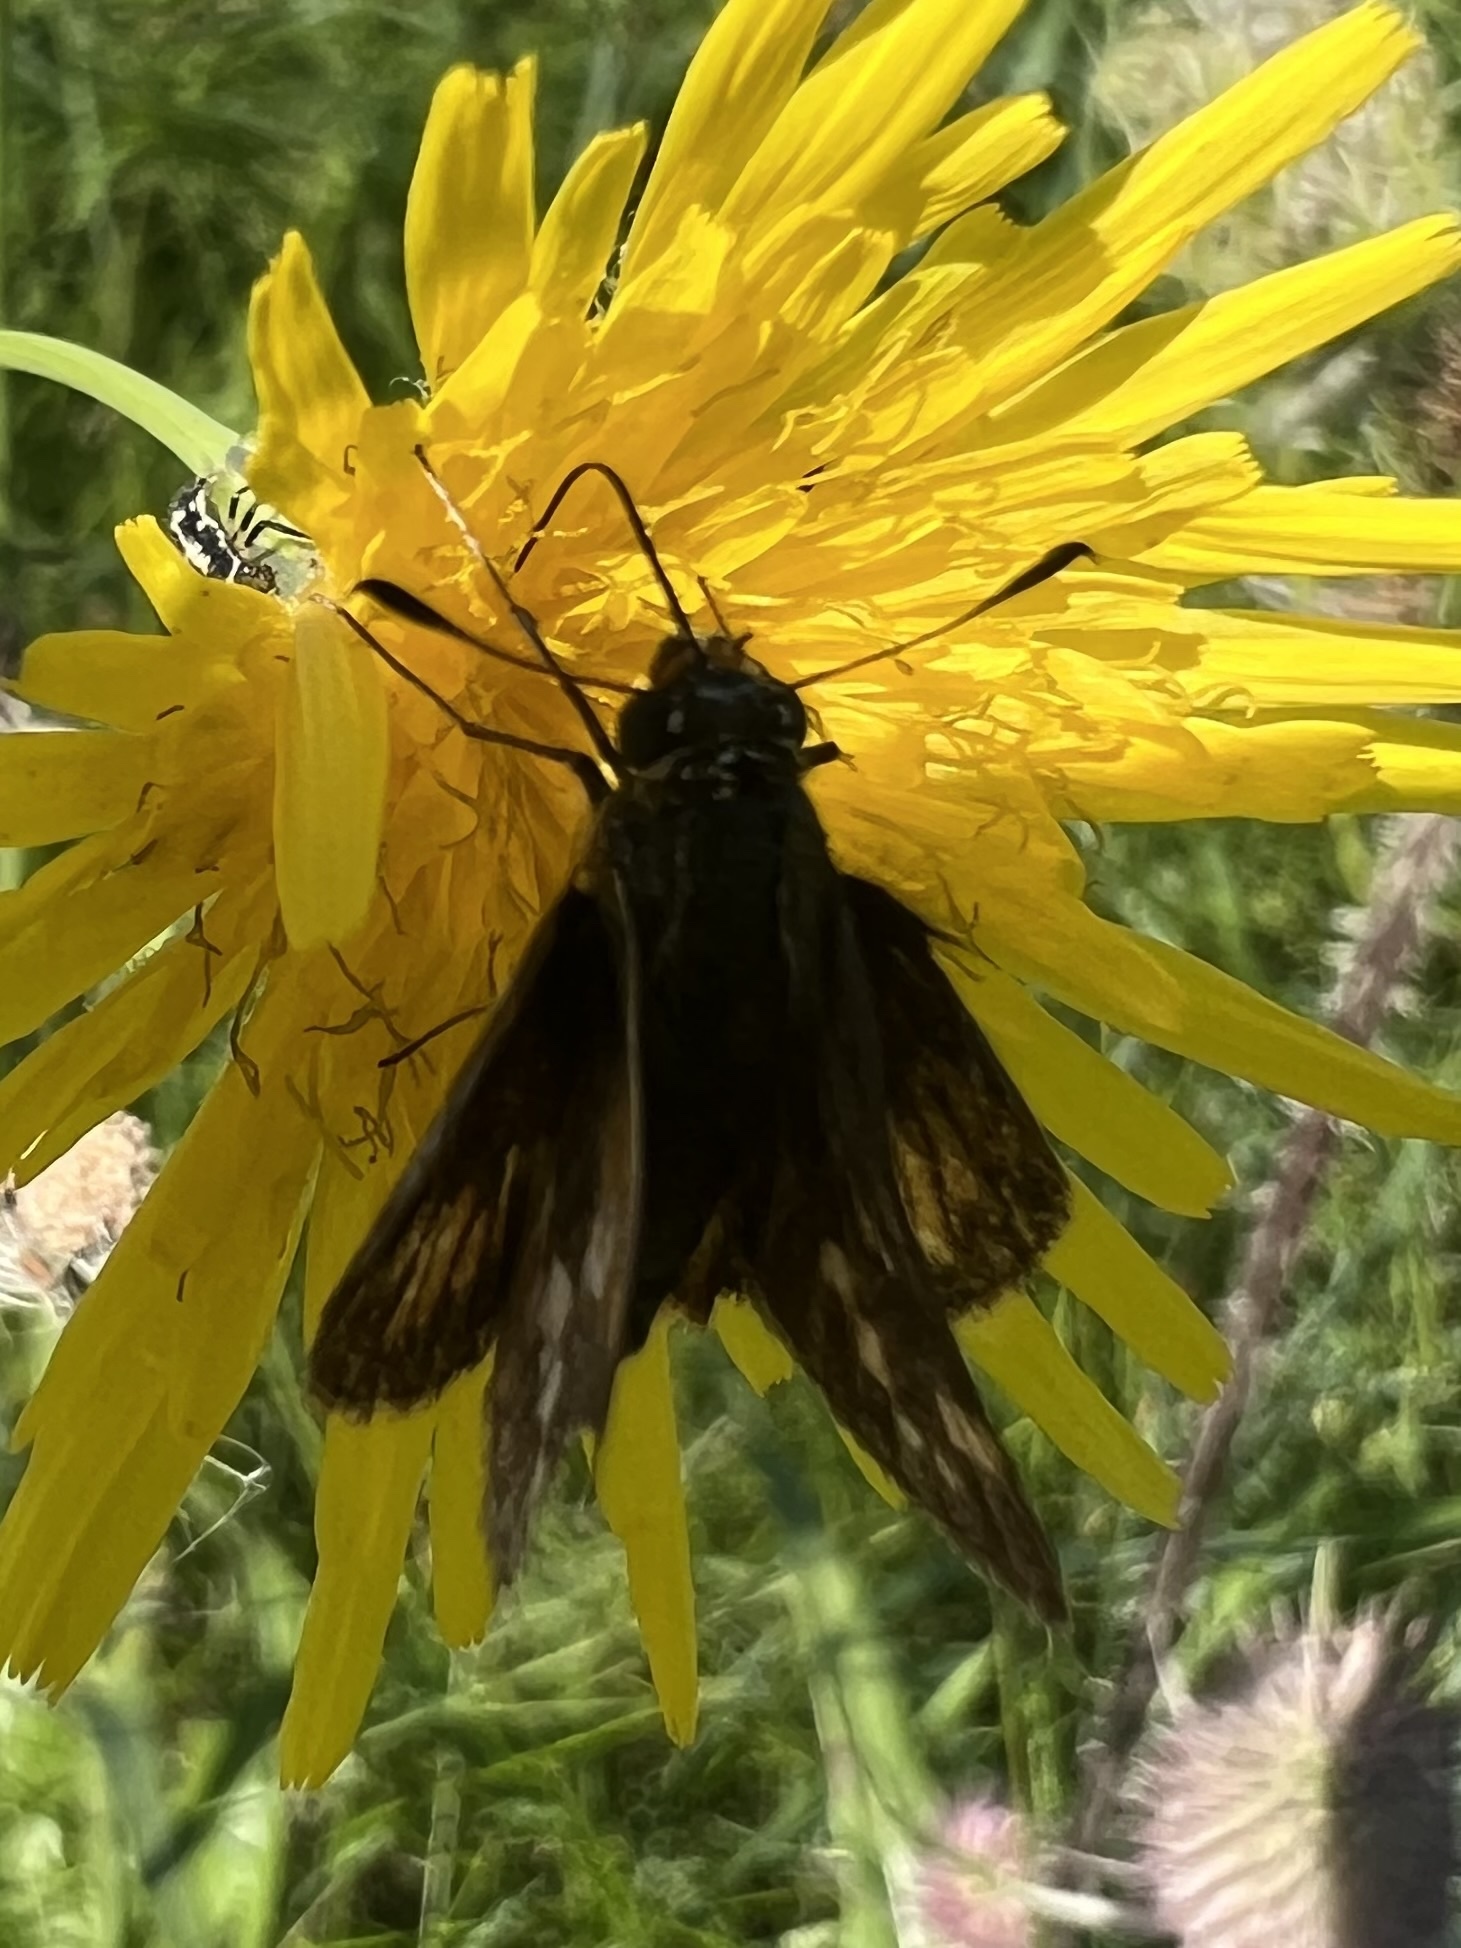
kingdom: Animalia
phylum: Arthropoda
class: Insecta
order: Lepidoptera
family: Hesperiidae
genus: Polites
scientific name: Polites coras
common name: Peck's skipper
